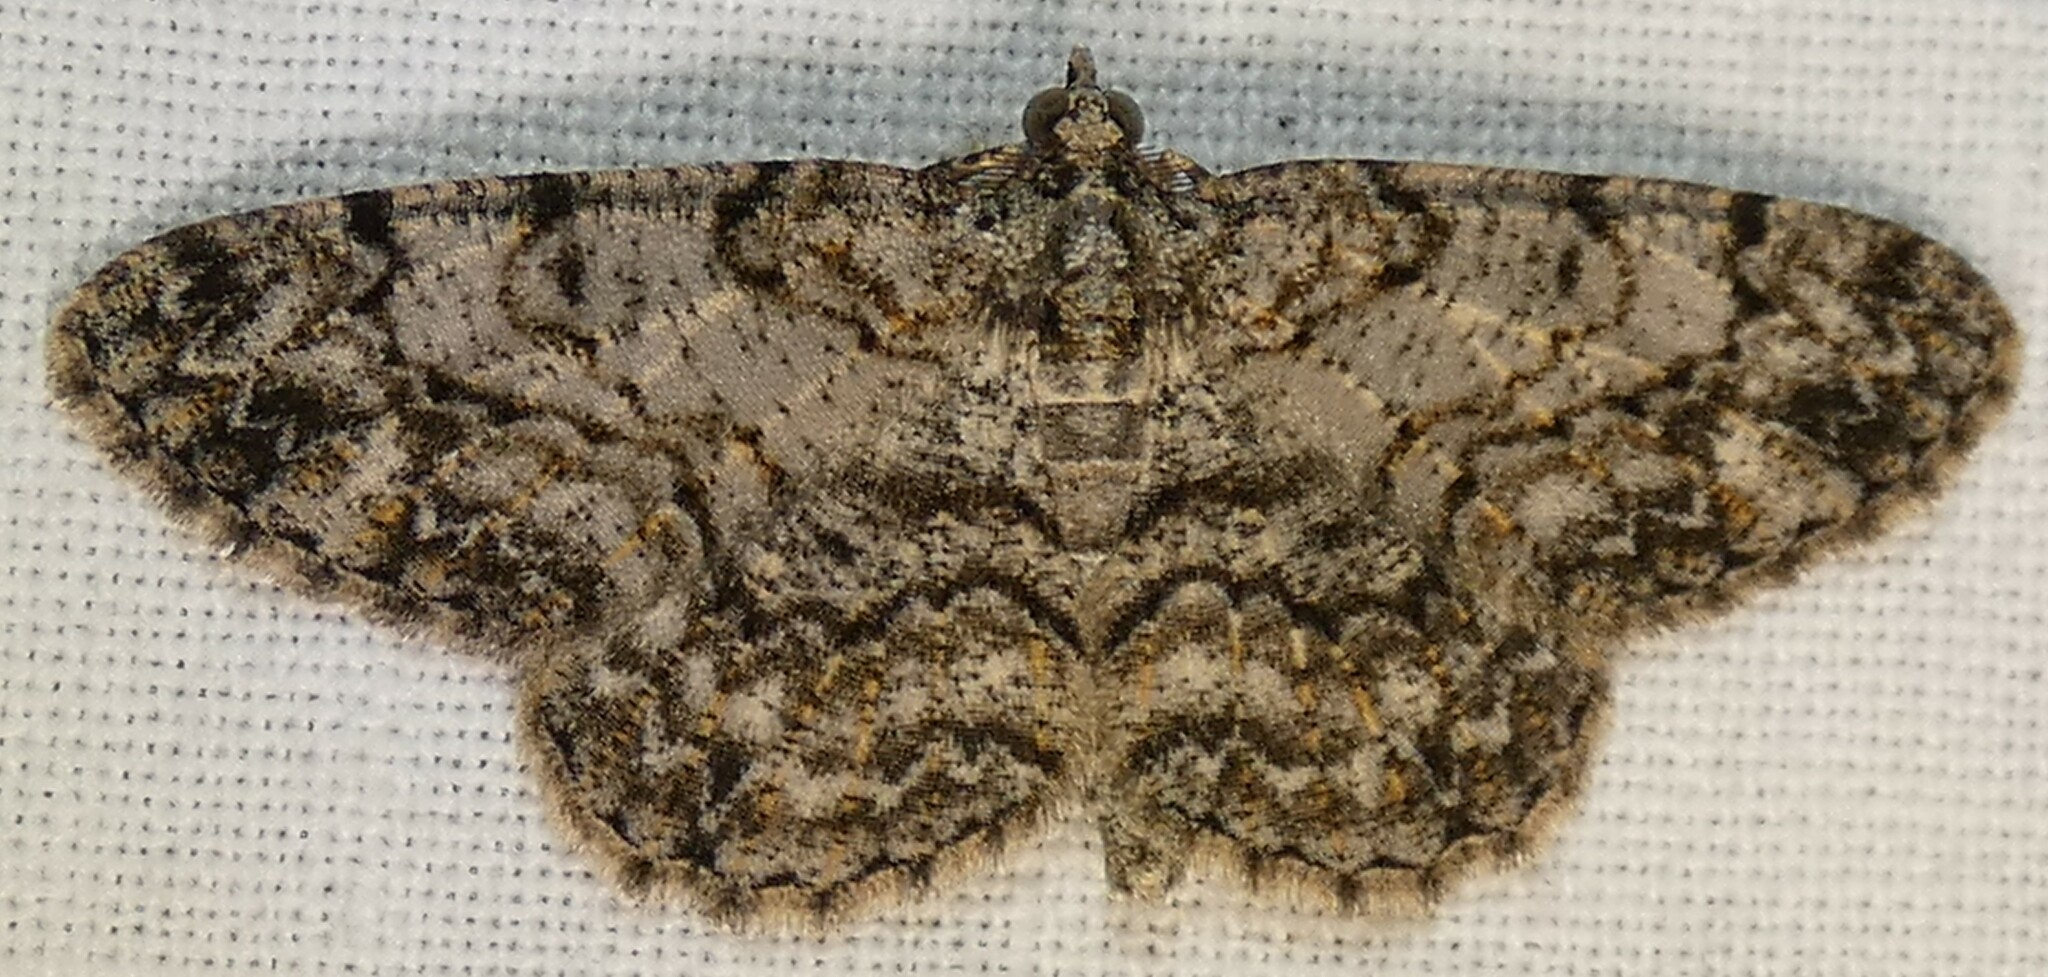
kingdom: Animalia
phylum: Arthropoda
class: Insecta
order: Lepidoptera
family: Geometridae
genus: Protoboarmia
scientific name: Protoboarmia porcelaria
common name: Porcelain gray
